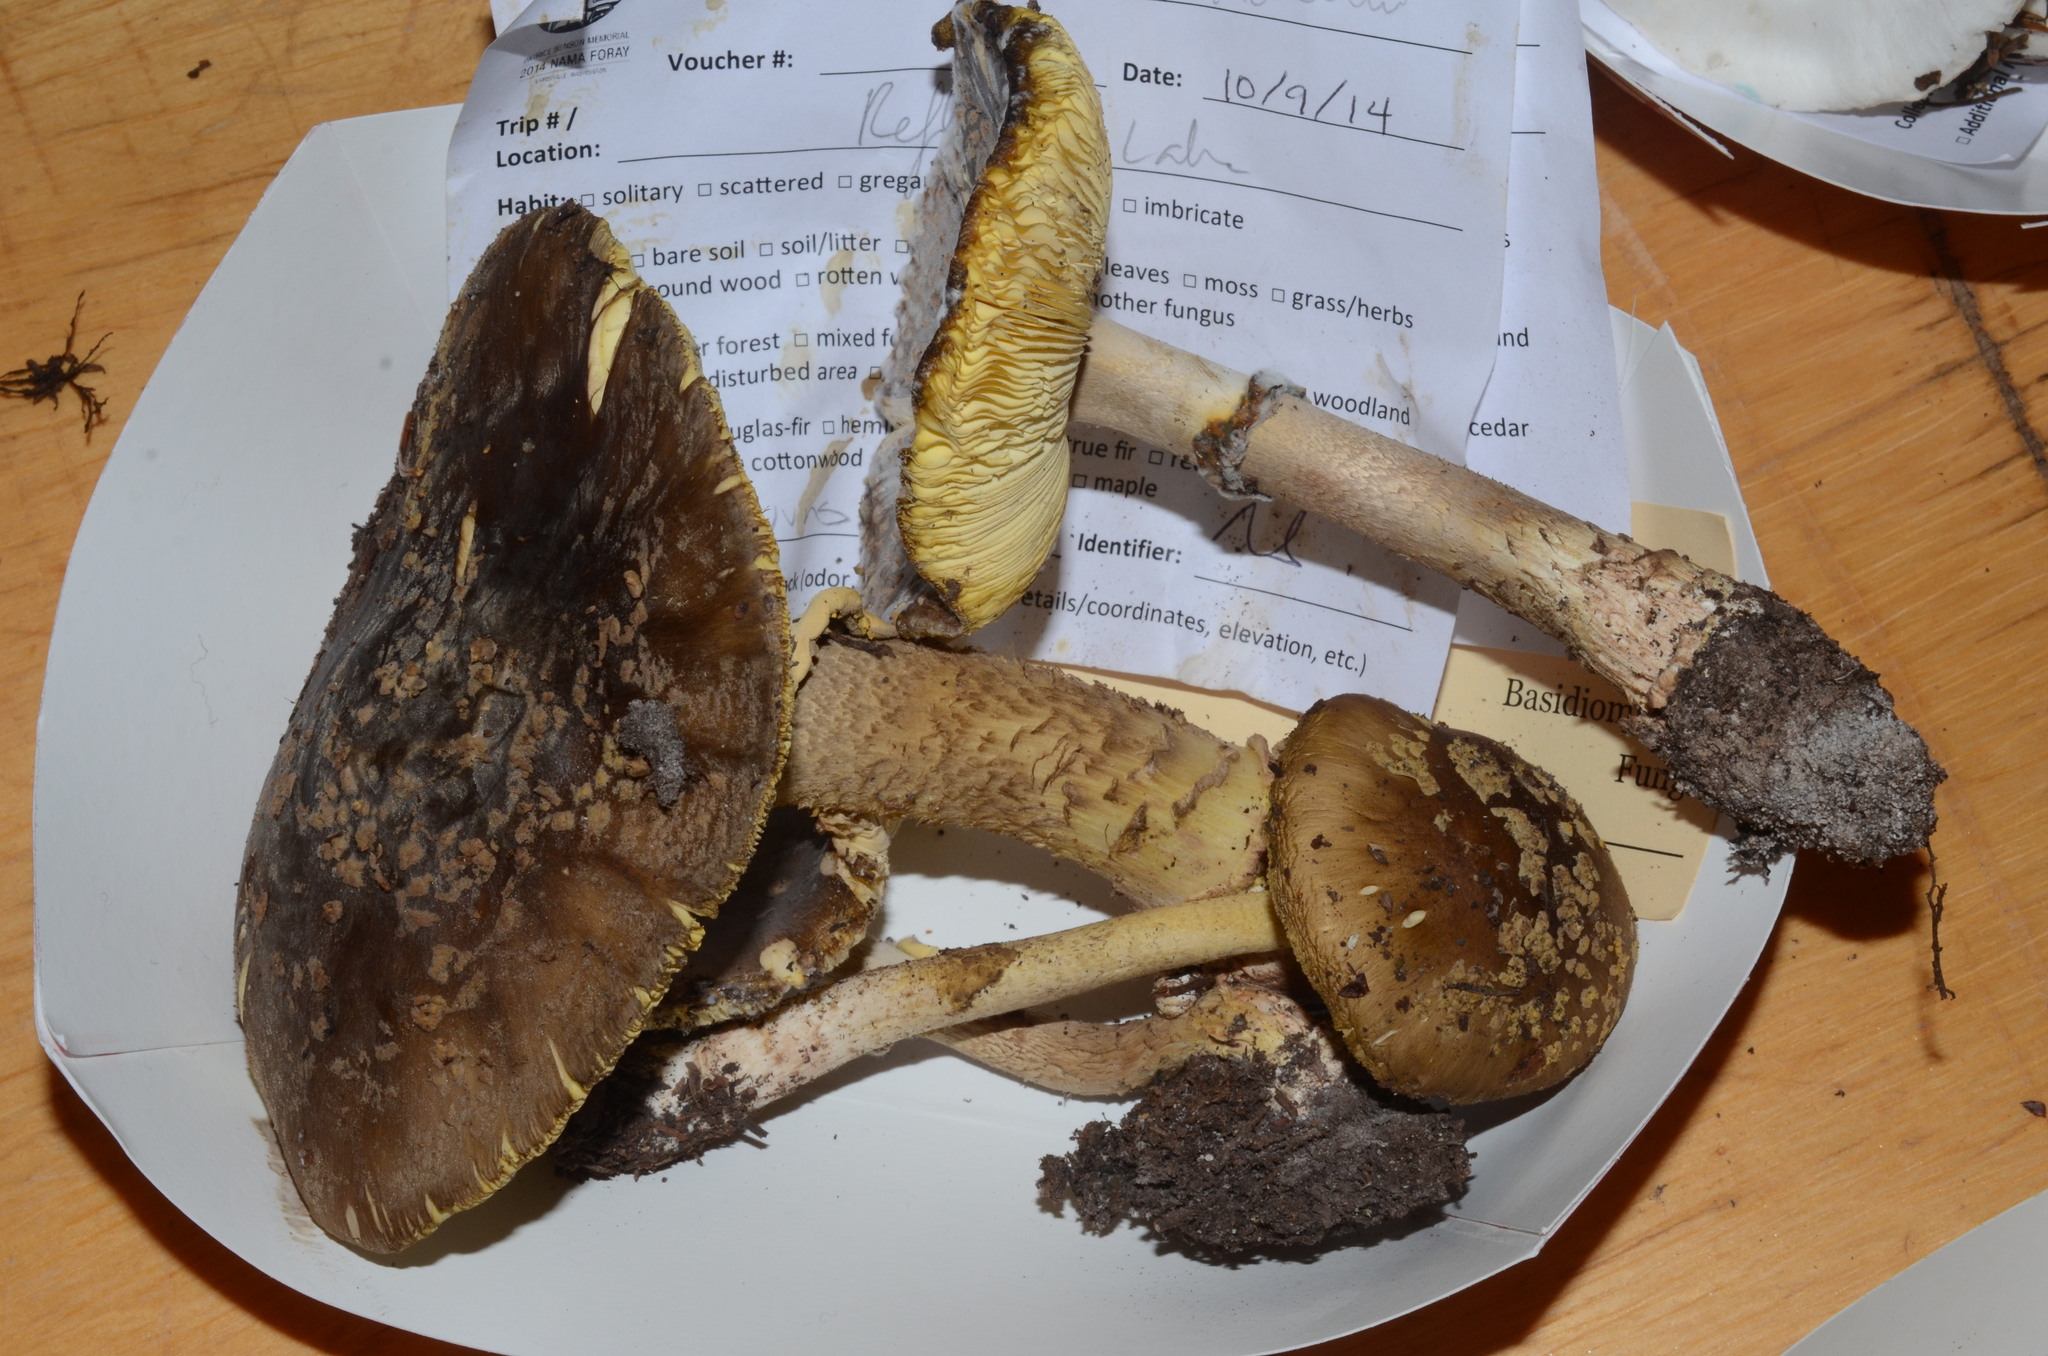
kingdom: Fungi
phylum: Basidiomycota
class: Agaricomycetes
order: Agaricales
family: Amanitaceae
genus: Amanita
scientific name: Amanita augusta
